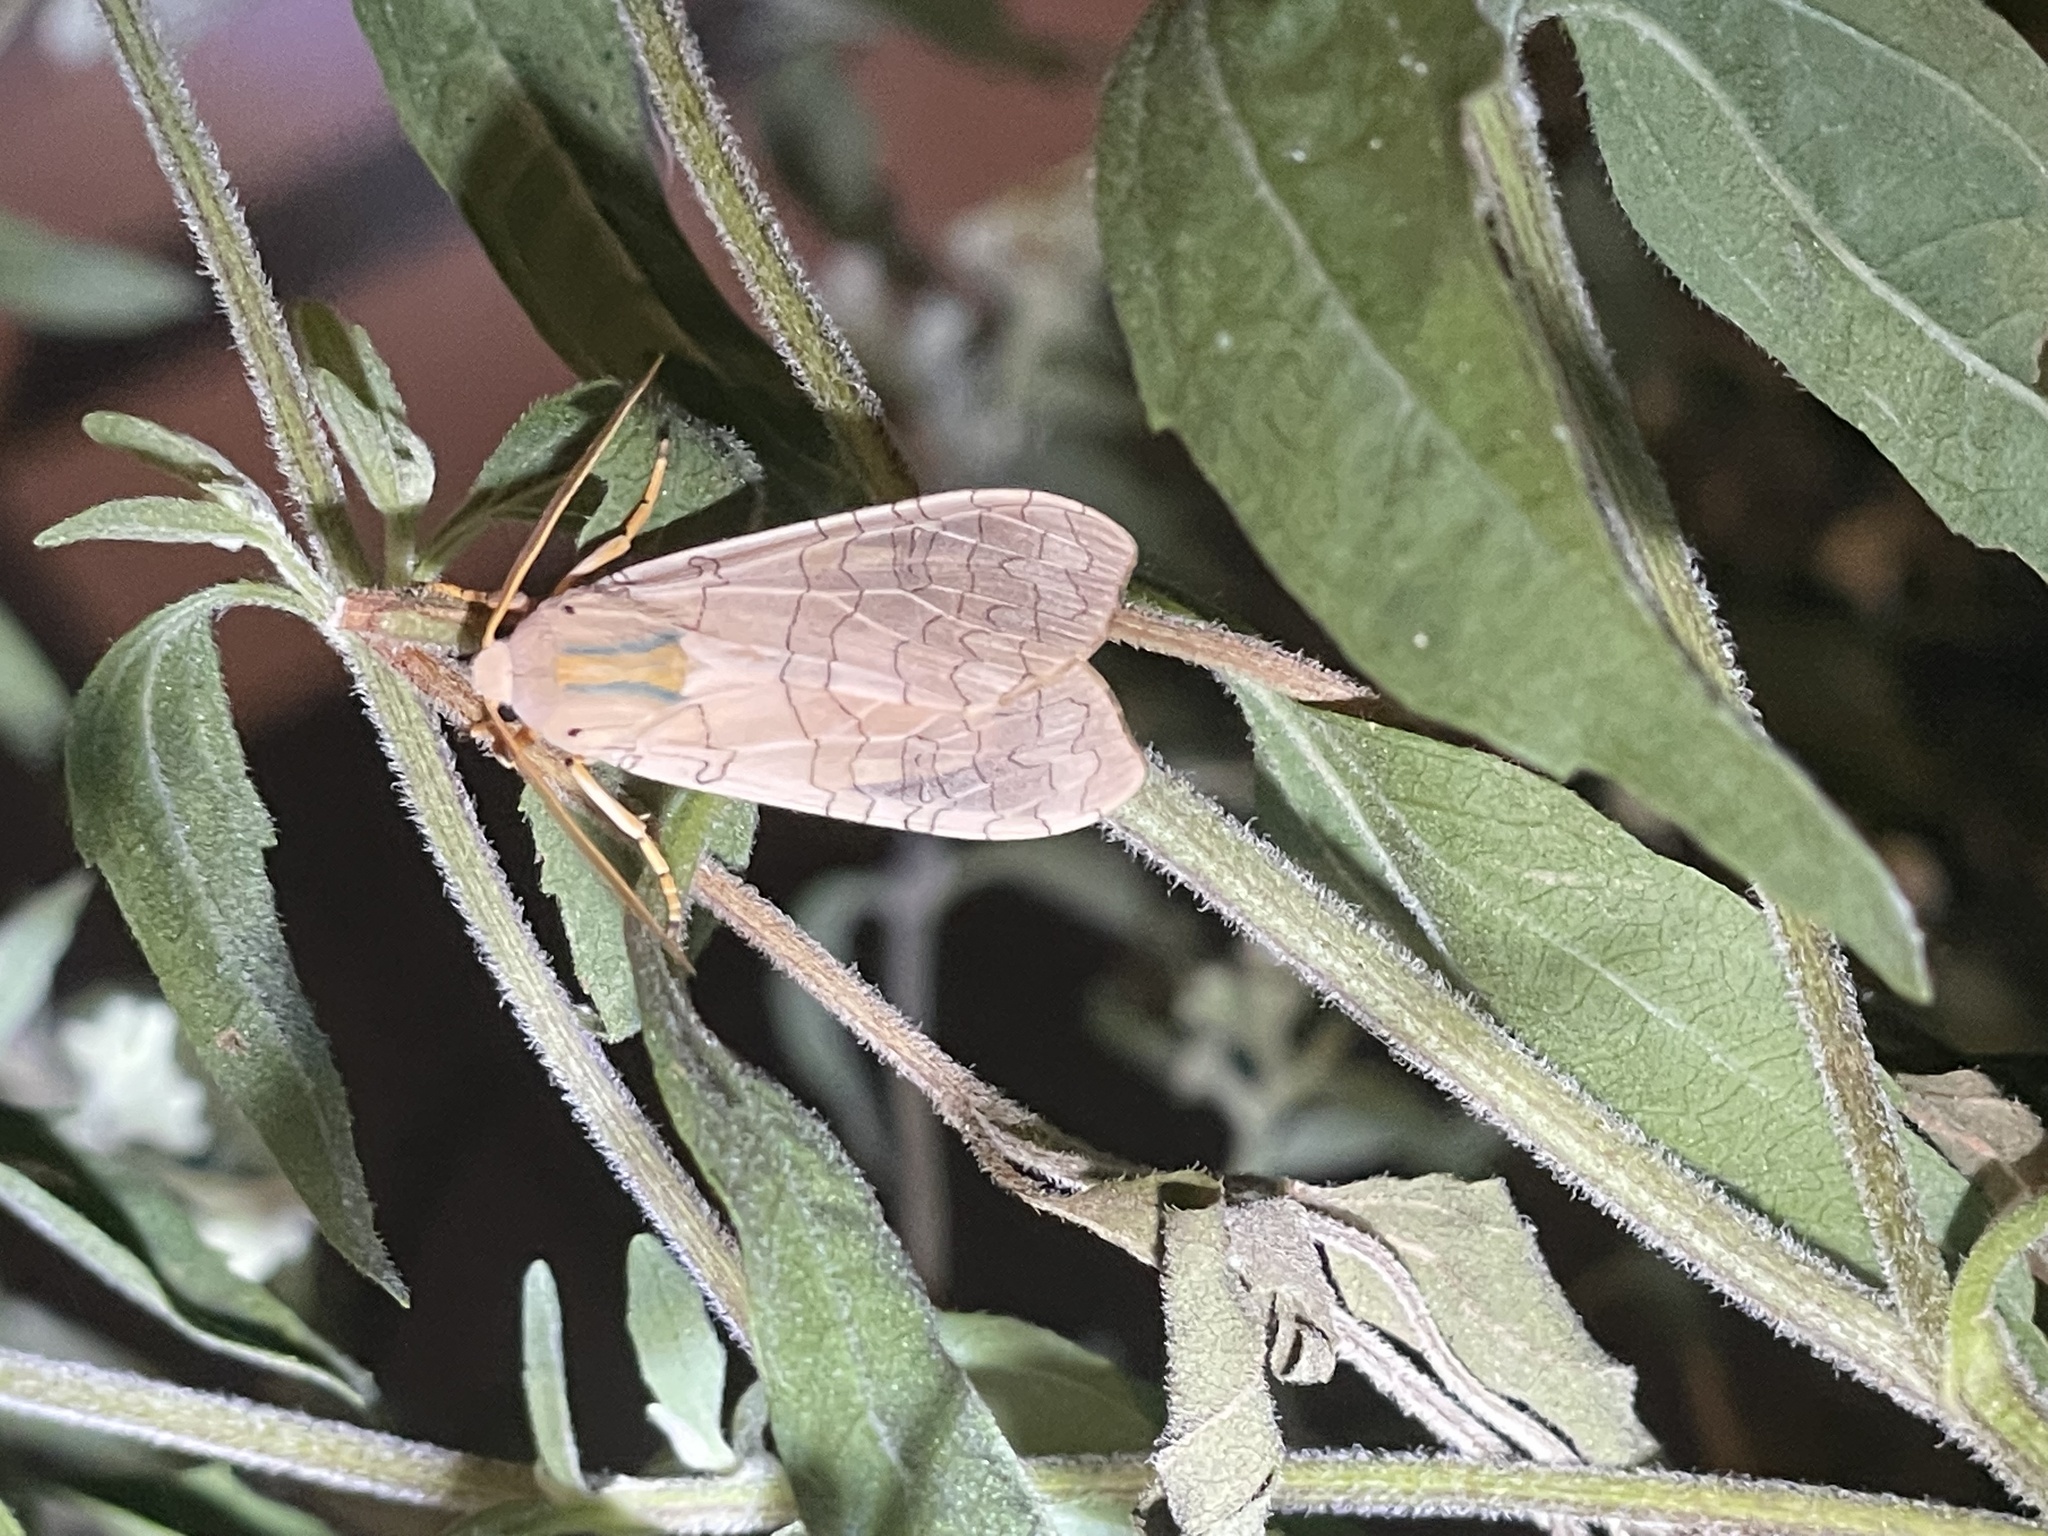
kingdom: Animalia
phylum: Arthropoda
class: Insecta
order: Lepidoptera
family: Erebidae
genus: Halysidota
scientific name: Halysidota
